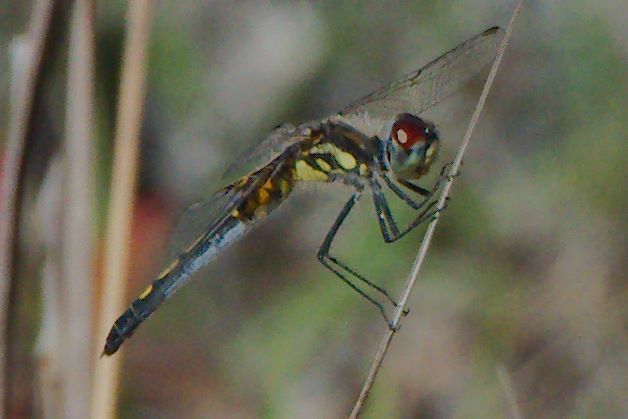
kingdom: Animalia
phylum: Arthropoda
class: Insecta
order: Odonata
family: Libellulidae
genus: Celithemis
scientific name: Celithemis ornata
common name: Ornate pennant
